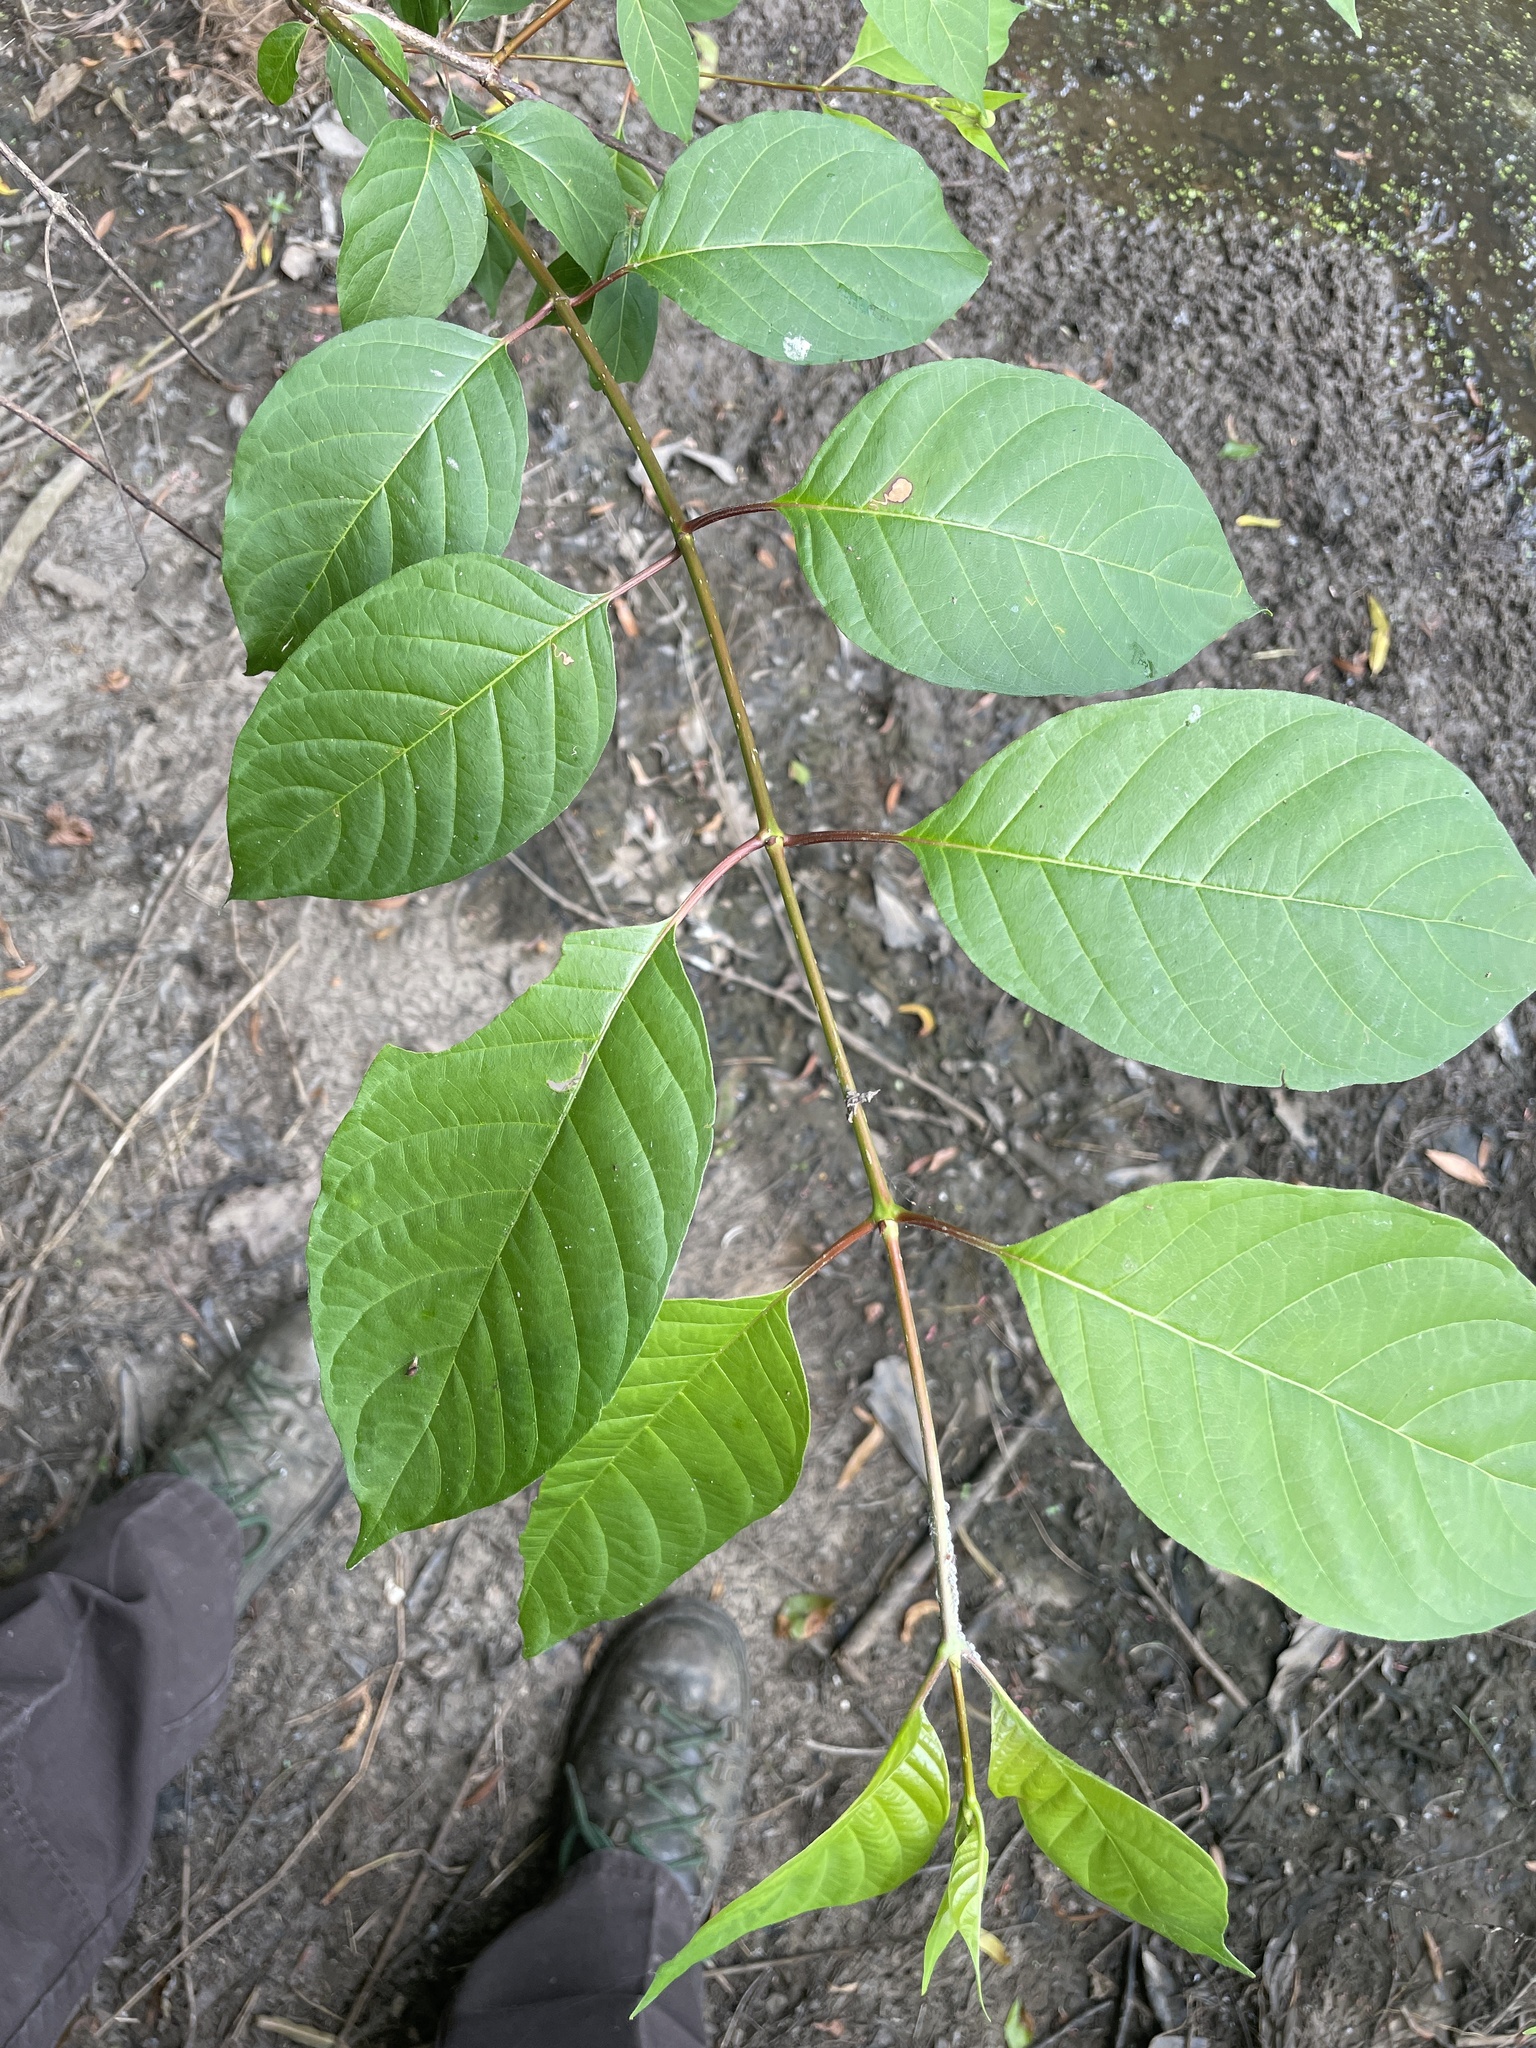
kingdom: Plantae
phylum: Tracheophyta
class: Magnoliopsida
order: Gentianales
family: Rubiaceae
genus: Cephalanthus
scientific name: Cephalanthus occidentalis
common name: Button-willow
